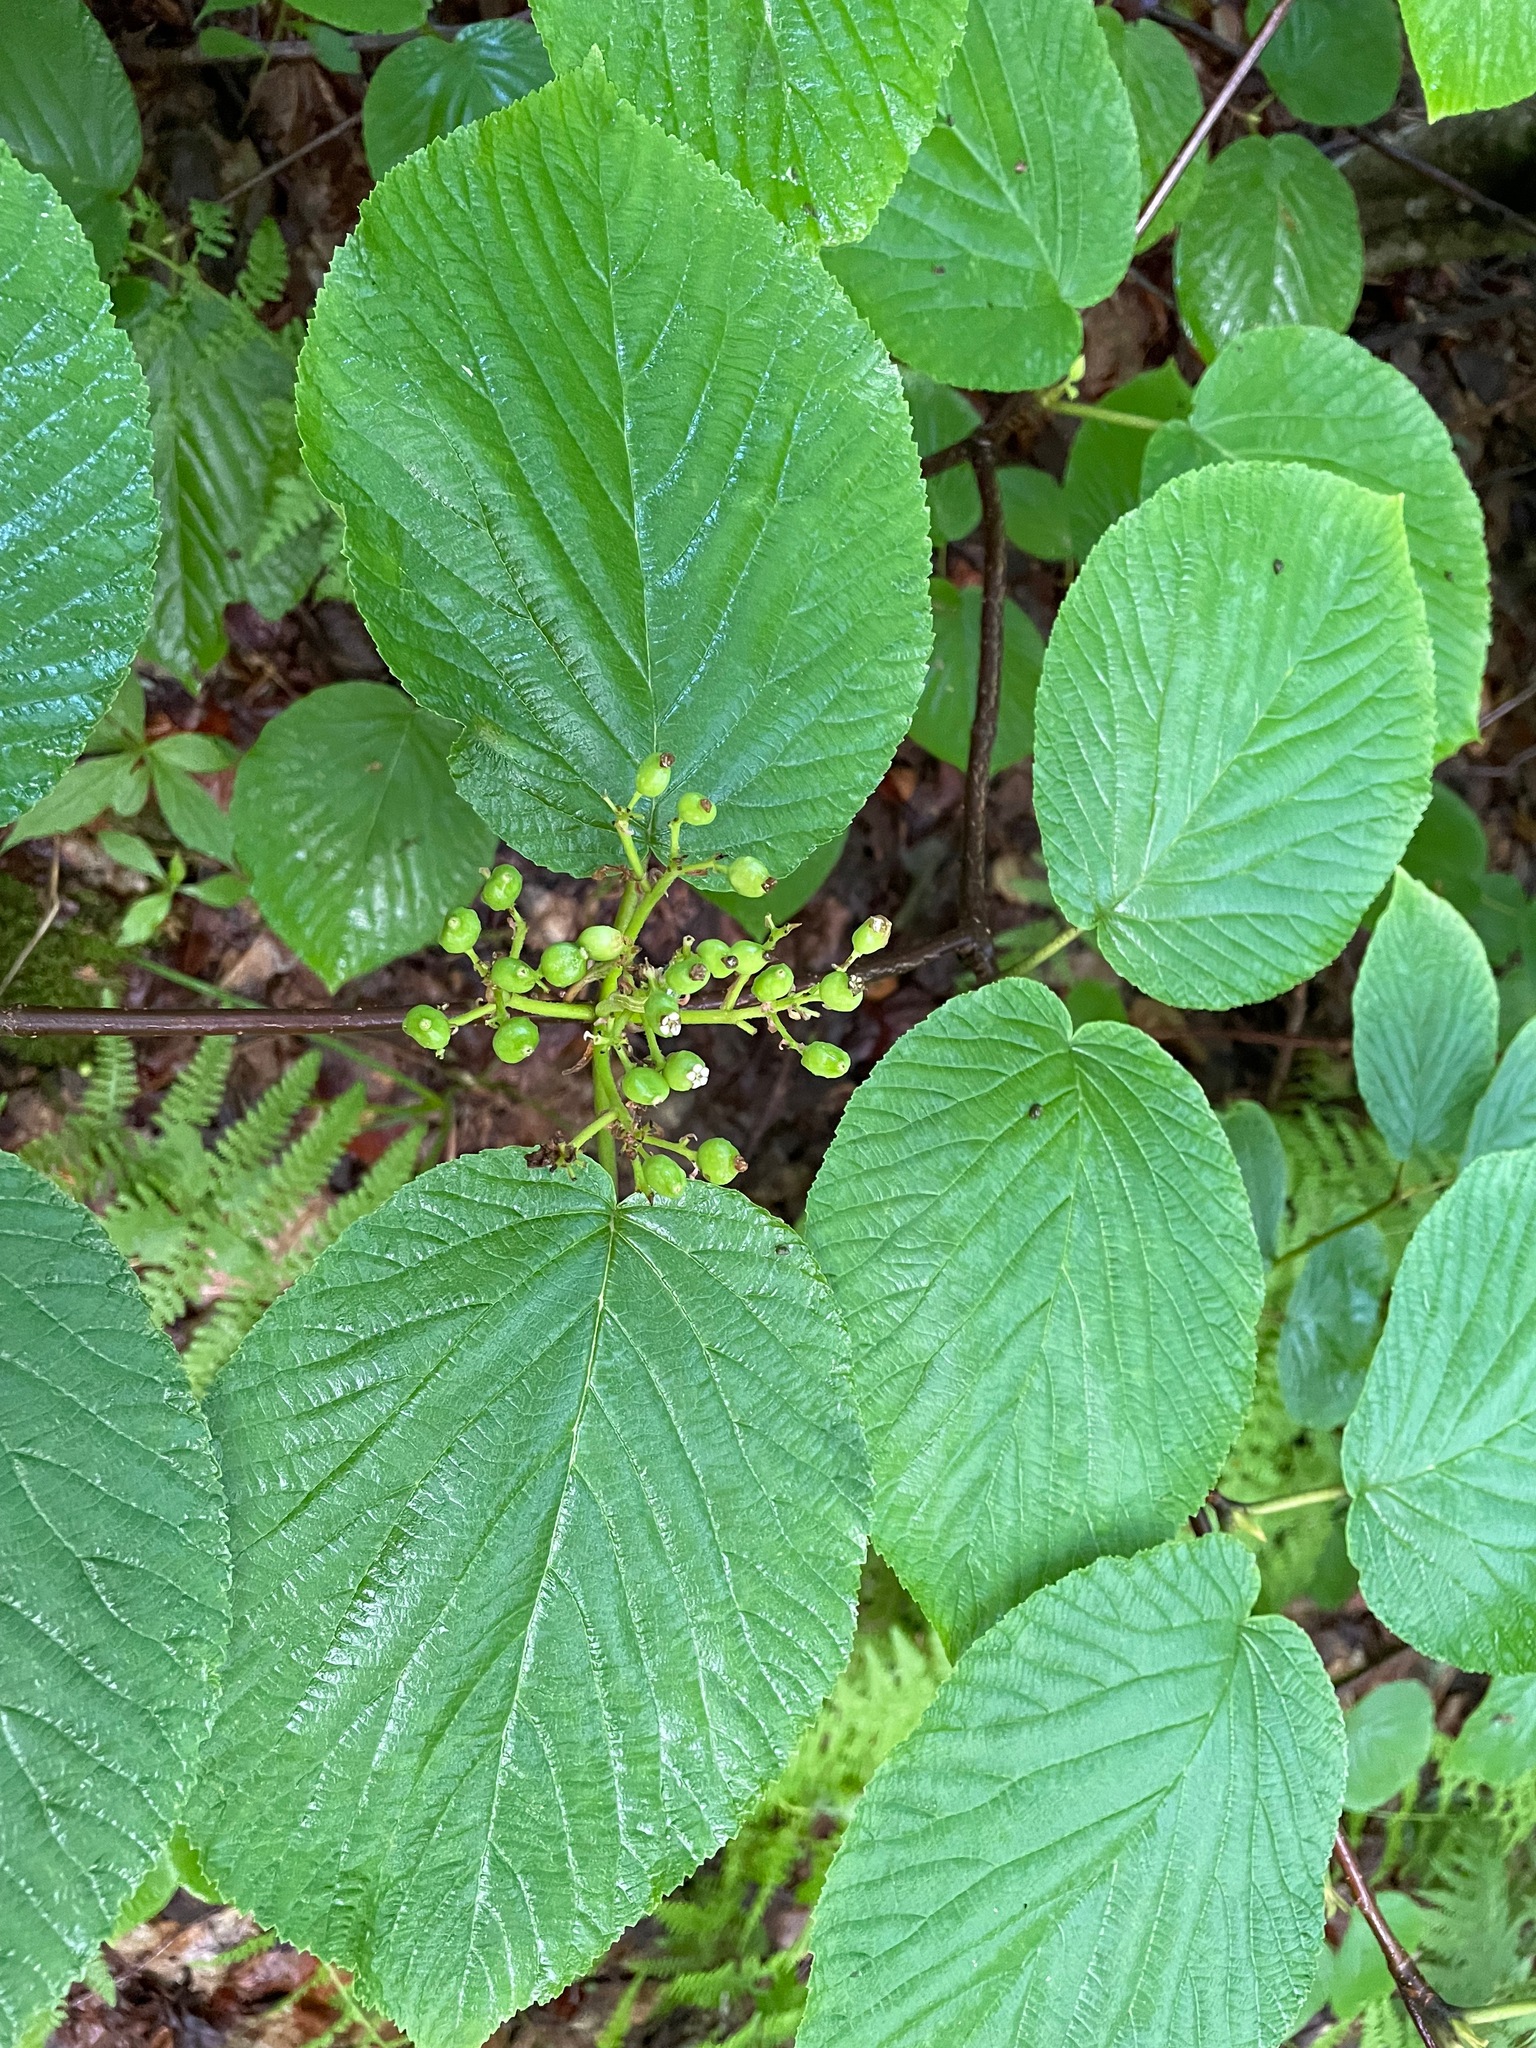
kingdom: Plantae
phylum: Tracheophyta
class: Magnoliopsida
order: Dipsacales
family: Viburnaceae
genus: Viburnum
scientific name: Viburnum lantanoides
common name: Hobblebush
